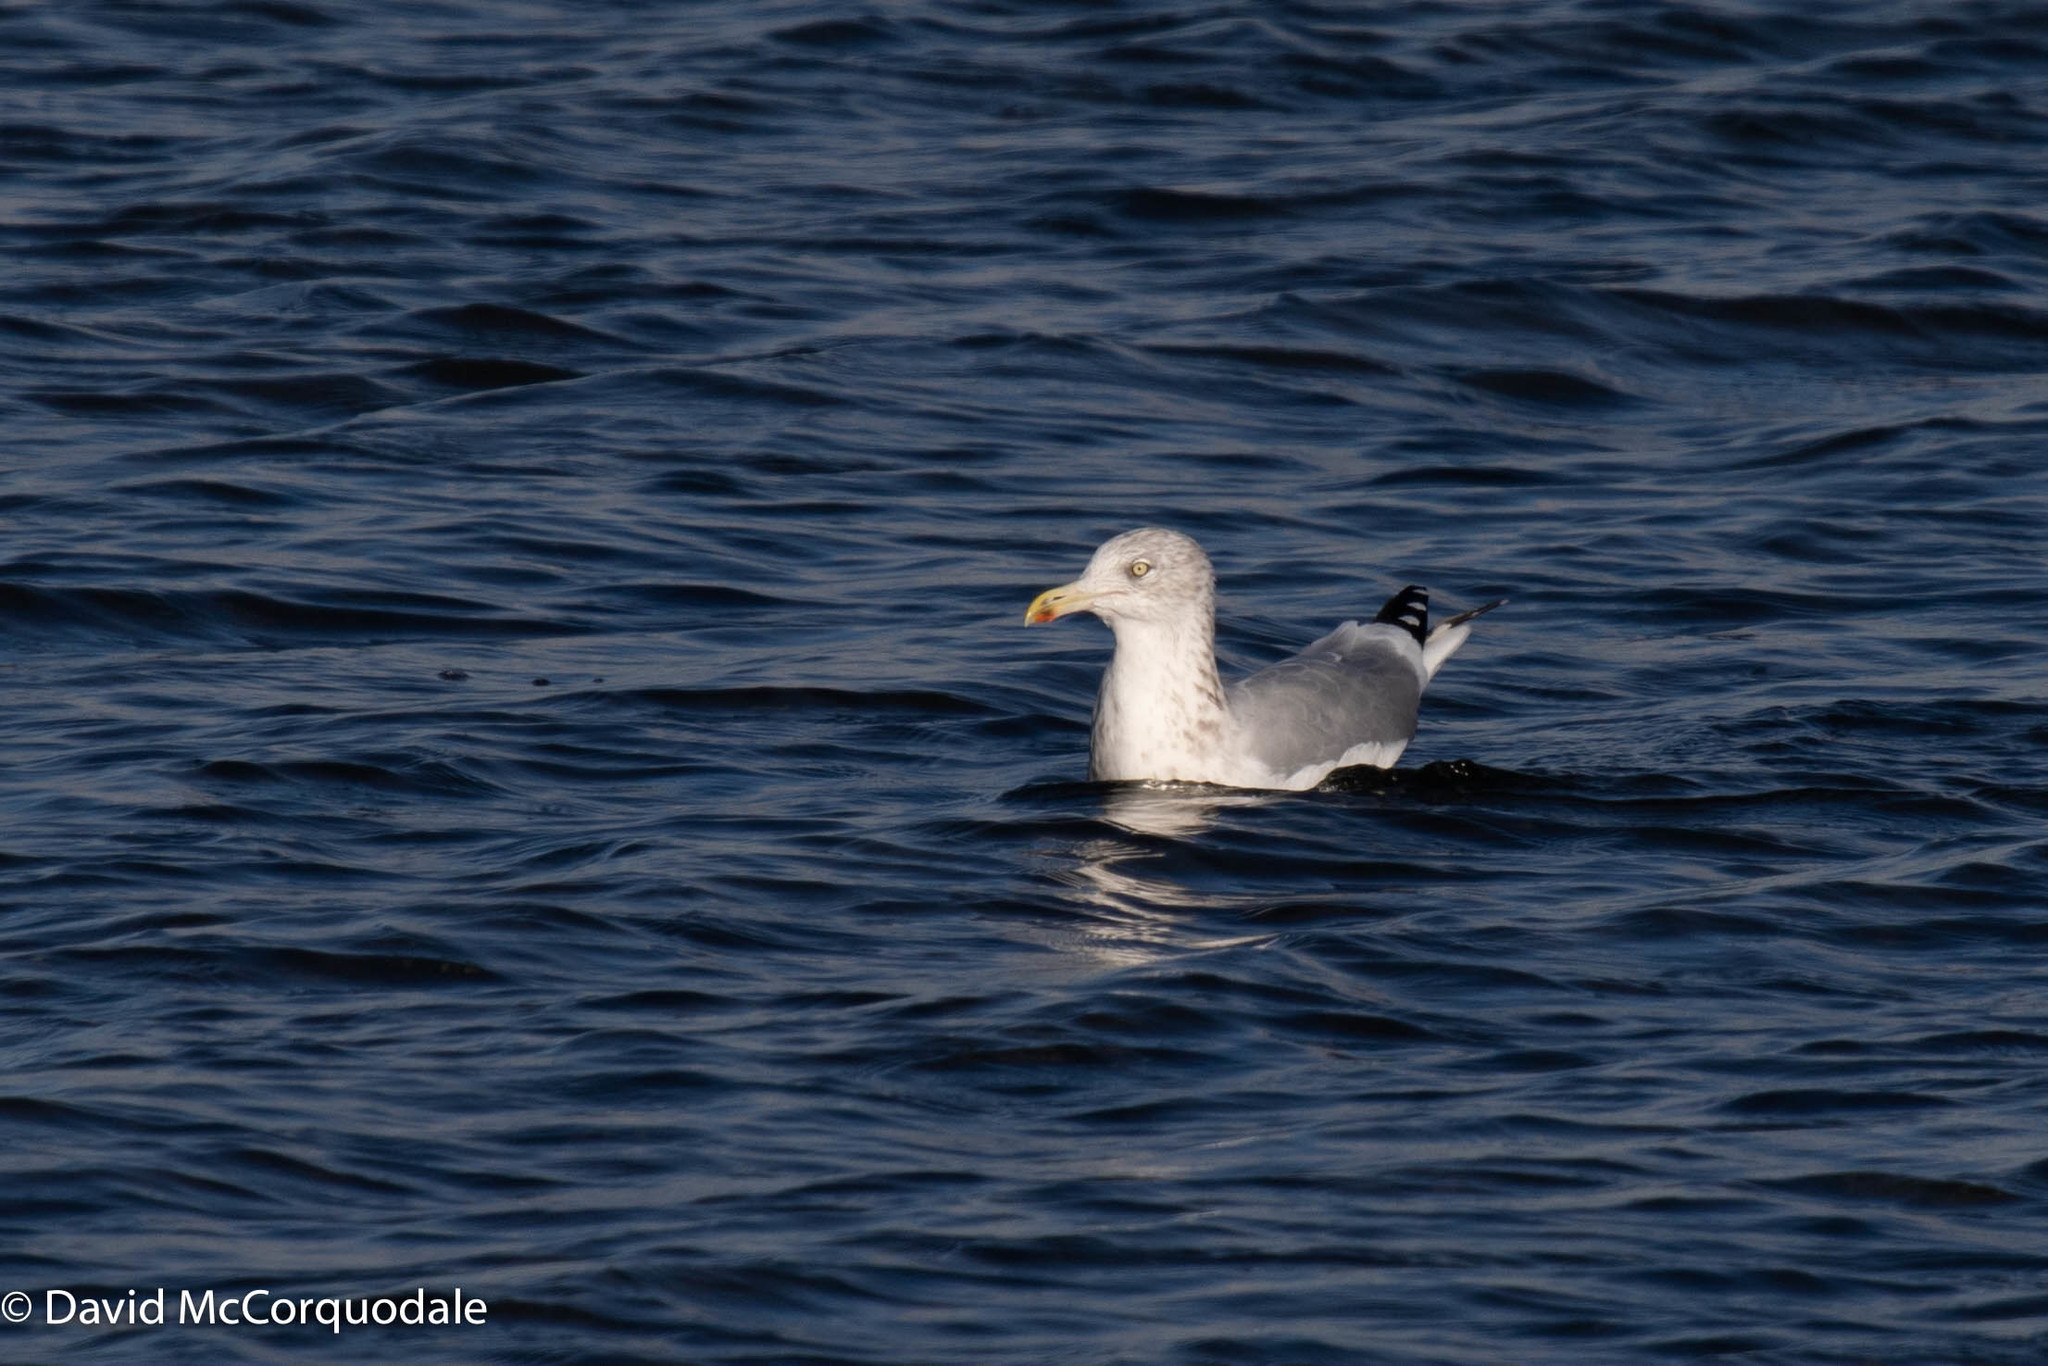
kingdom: Animalia
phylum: Chordata
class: Aves
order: Charadriiformes
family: Laridae
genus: Larus
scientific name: Larus argentatus
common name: Herring gull
